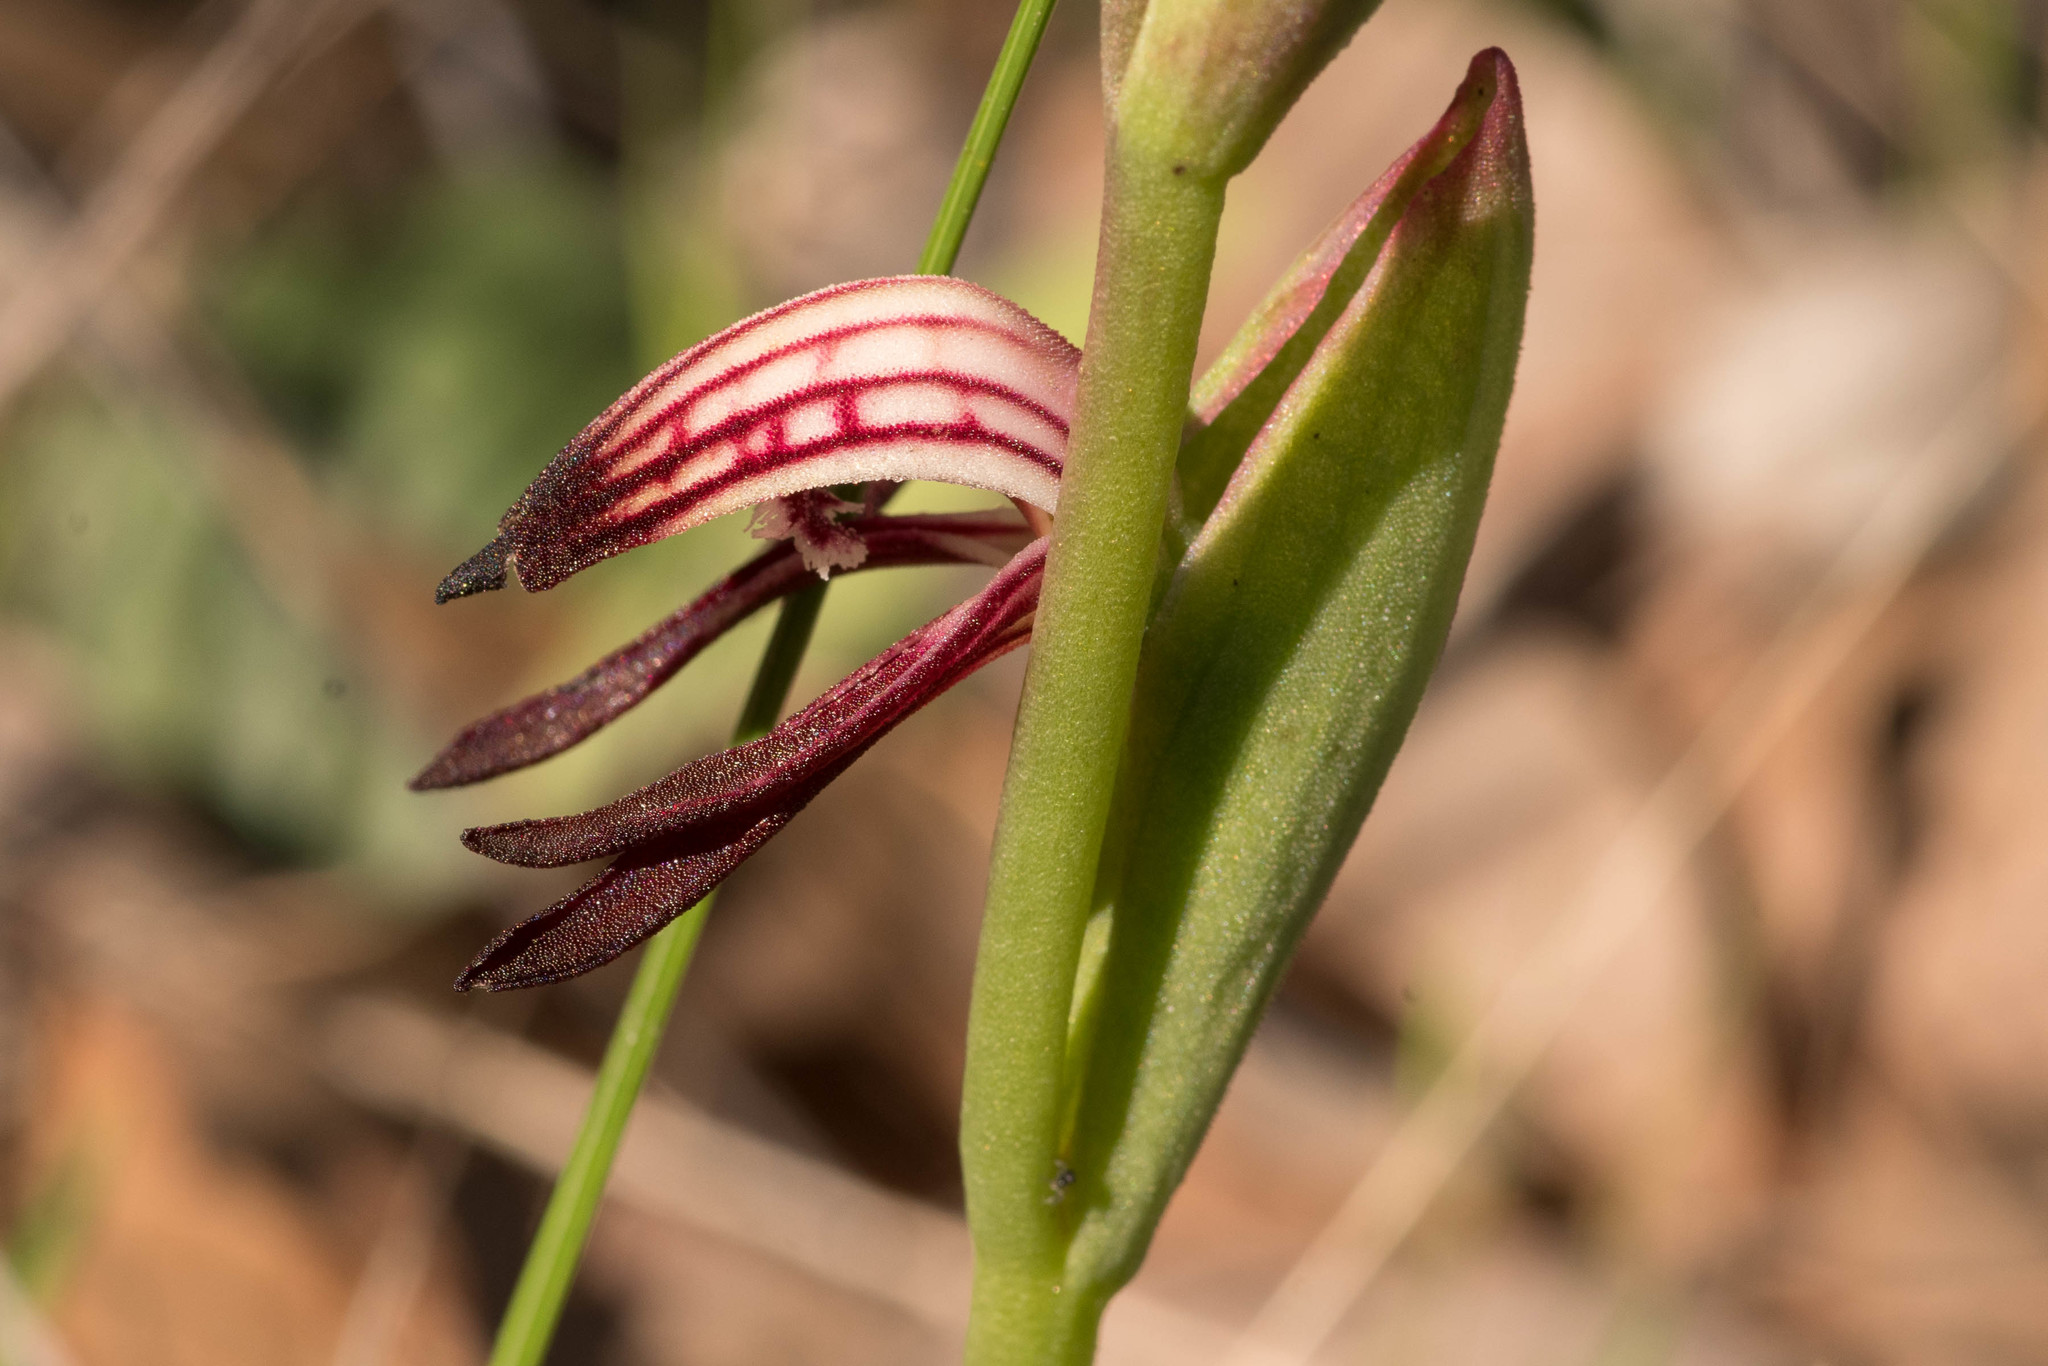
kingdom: Plantae
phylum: Tracheophyta
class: Liliopsida
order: Asparagales
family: Orchidaceae
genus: Pyrorchis
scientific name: Pyrorchis nigricans
